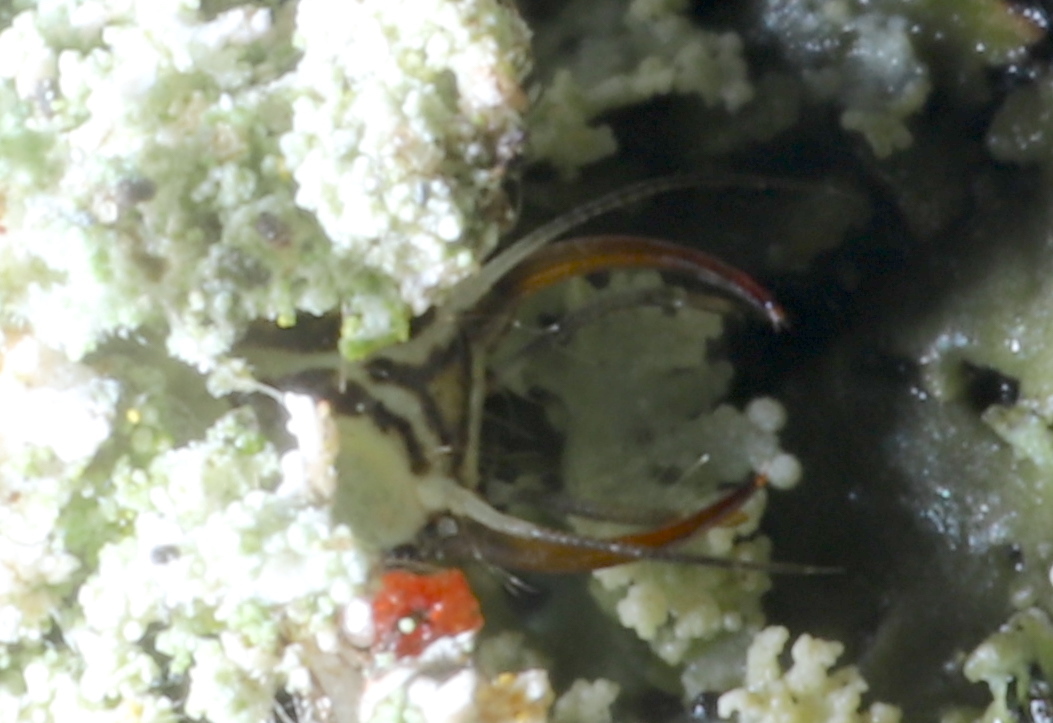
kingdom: Animalia
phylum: Arthropoda
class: Insecta
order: Neuroptera
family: Chrysopidae
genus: Leucochrysa
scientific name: Leucochrysa pavida
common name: Lichen-carrying green lacewing
